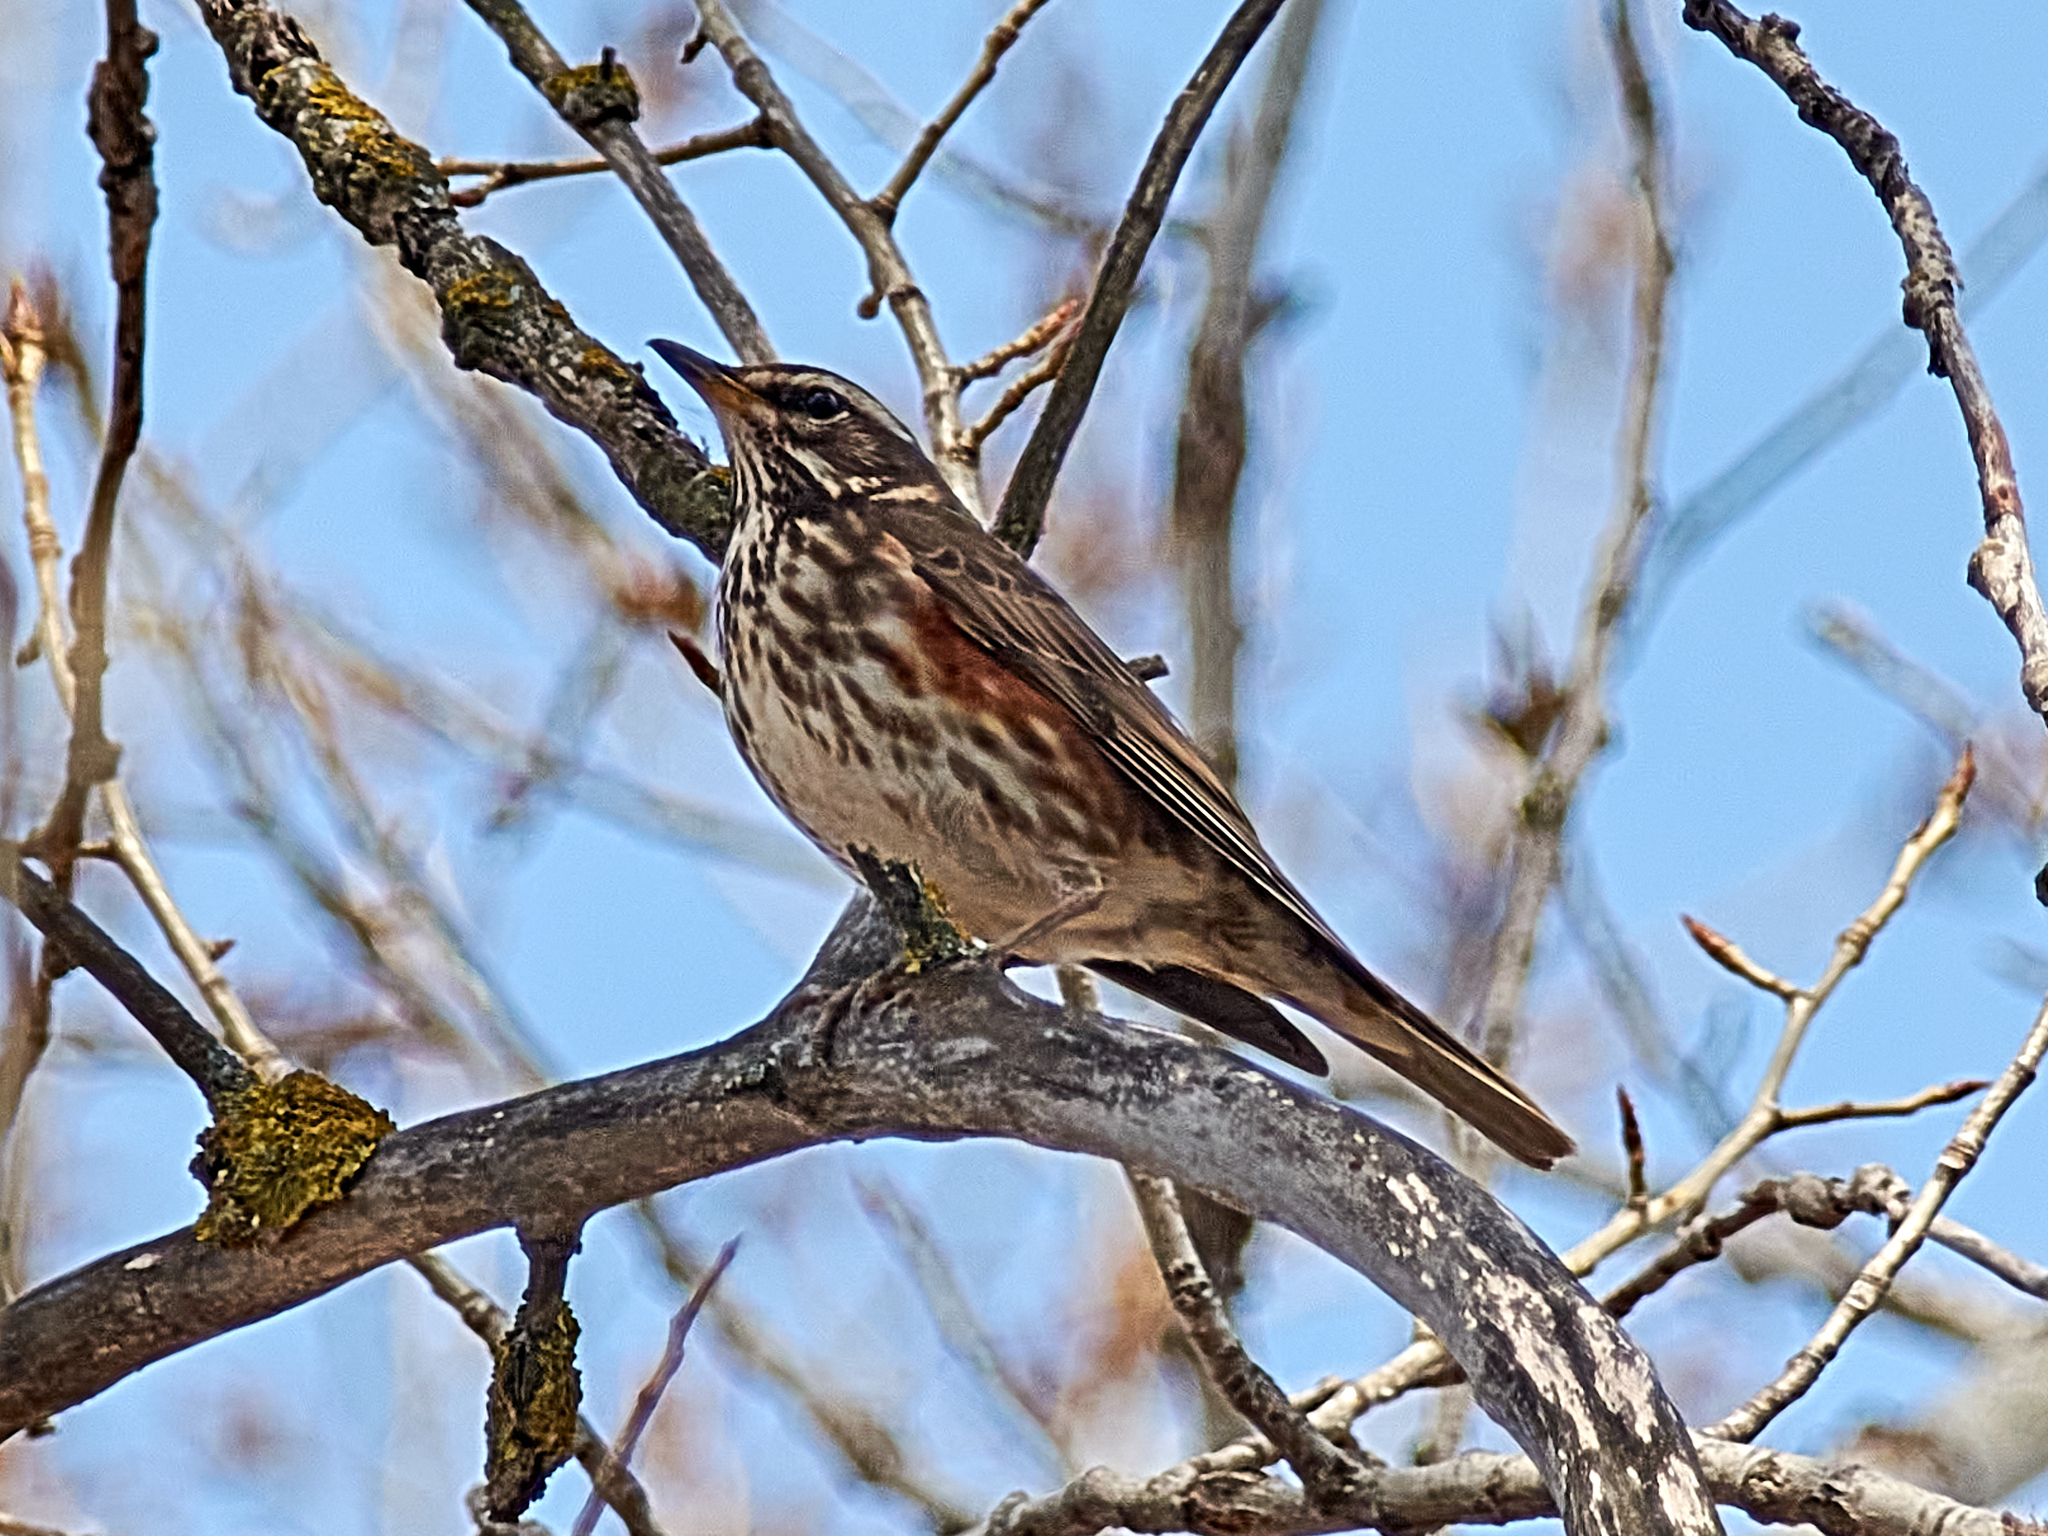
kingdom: Animalia
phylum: Chordata
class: Aves
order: Passeriformes
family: Turdidae
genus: Turdus
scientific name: Turdus iliacus
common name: Redwing
